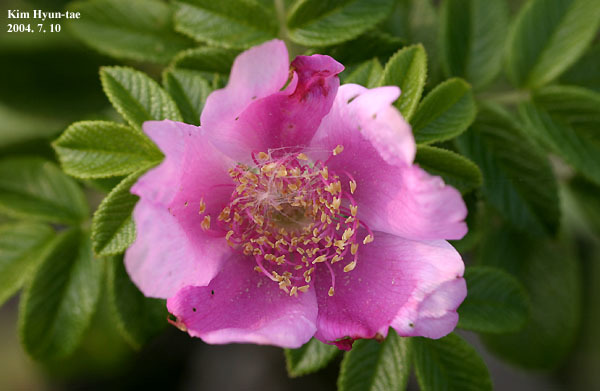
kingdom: Plantae
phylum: Tracheophyta
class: Magnoliopsida
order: Rosales
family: Rosaceae
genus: Rosa
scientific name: Rosa rugosa
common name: Japanese rose
